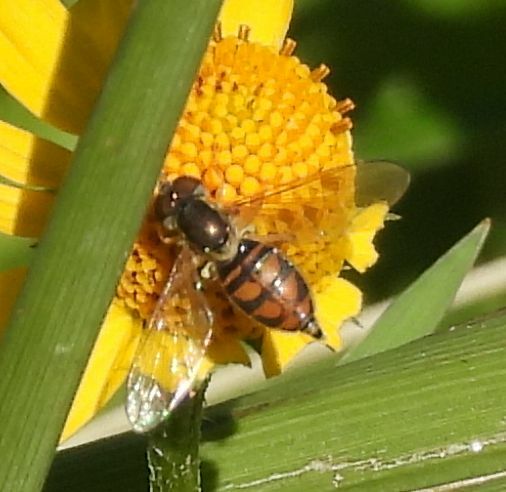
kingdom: Animalia
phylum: Arthropoda
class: Insecta
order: Diptera
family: Syrphidae
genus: Toxomerus
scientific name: Toxomerus marginatus
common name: Syrphid fly
